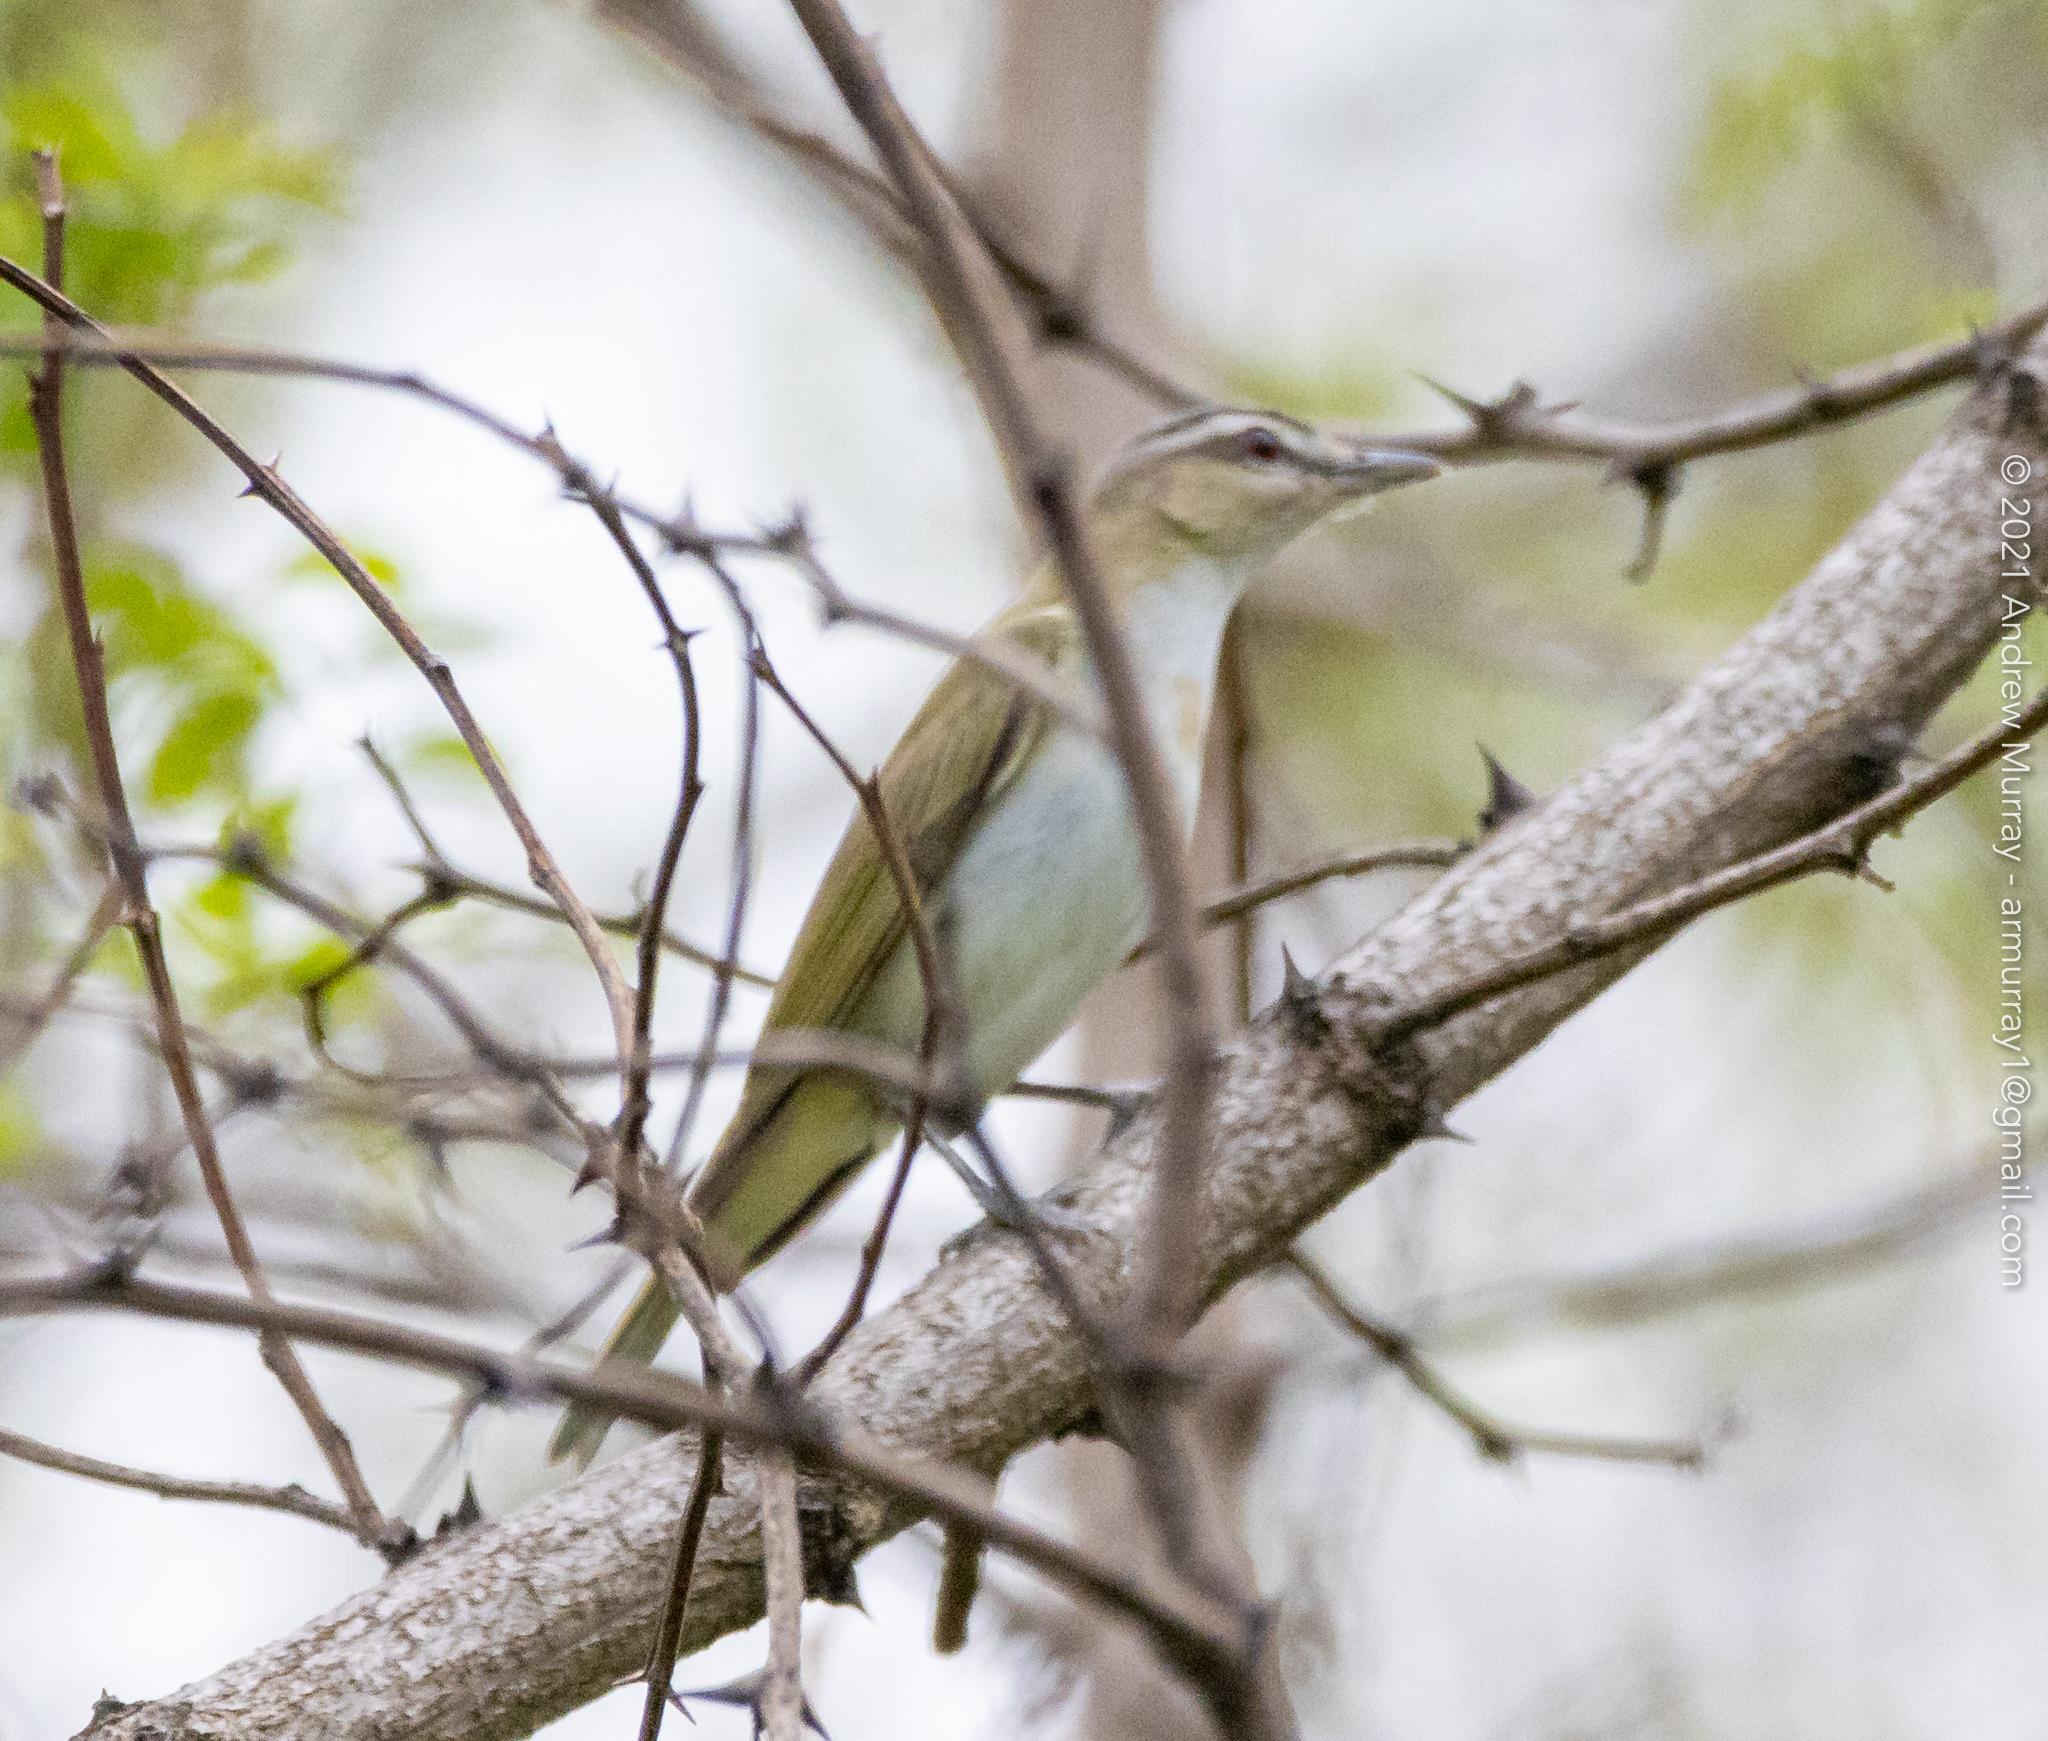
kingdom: Animalia
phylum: Chordata
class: Aves
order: Passeriformes
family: Vireonidae
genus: Vireo
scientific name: Vireo olivaceus
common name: Red-eyed vireo
